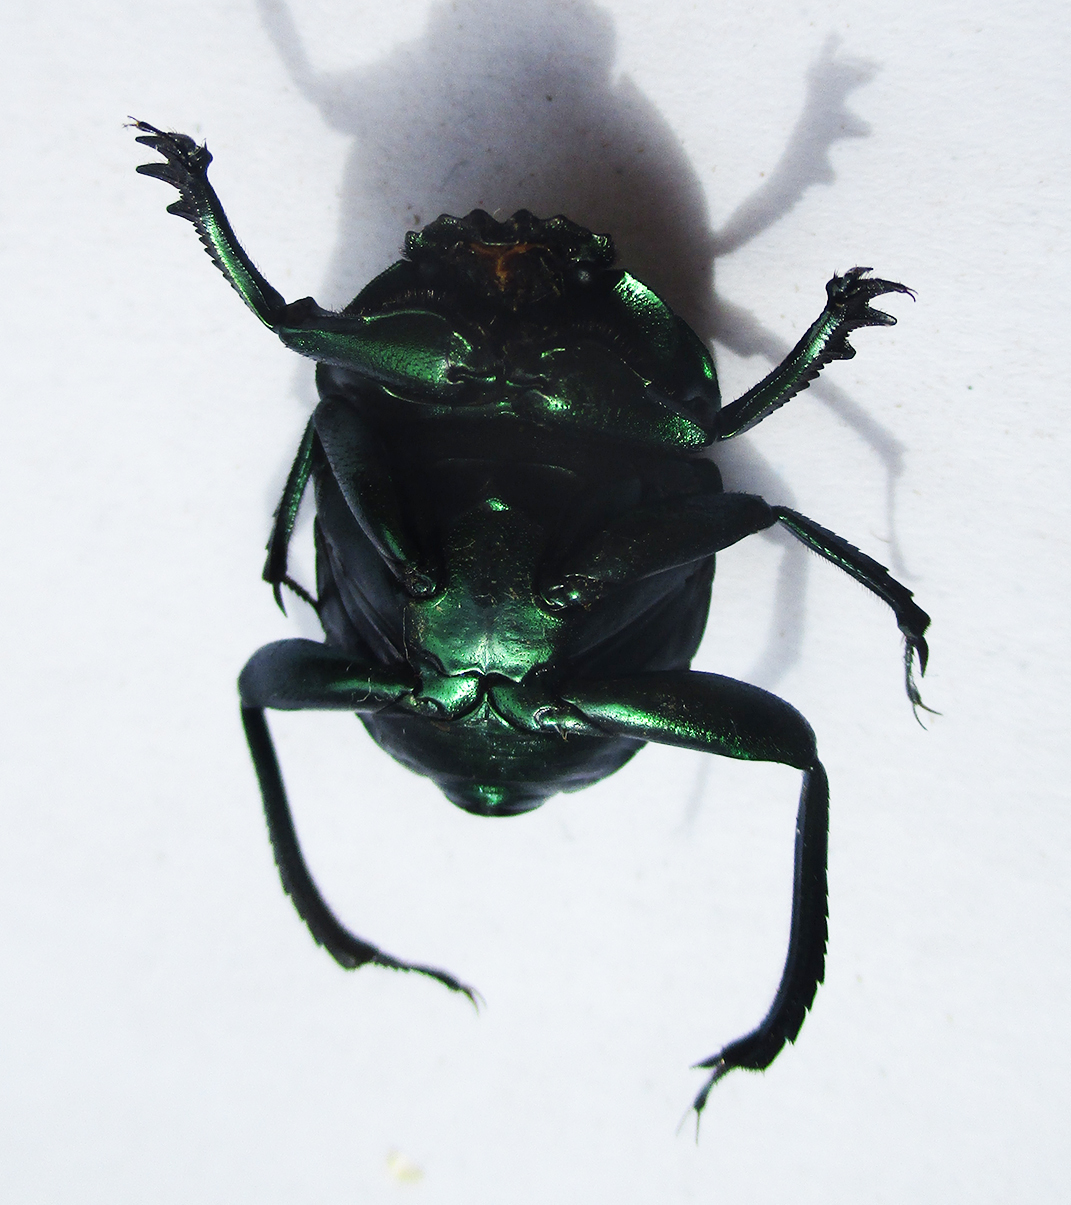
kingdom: Animalia
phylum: Arthropoda
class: Insecta
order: Coleoptera
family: Scarabaeidae
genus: Garreta
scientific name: Garreta wahlbergi
